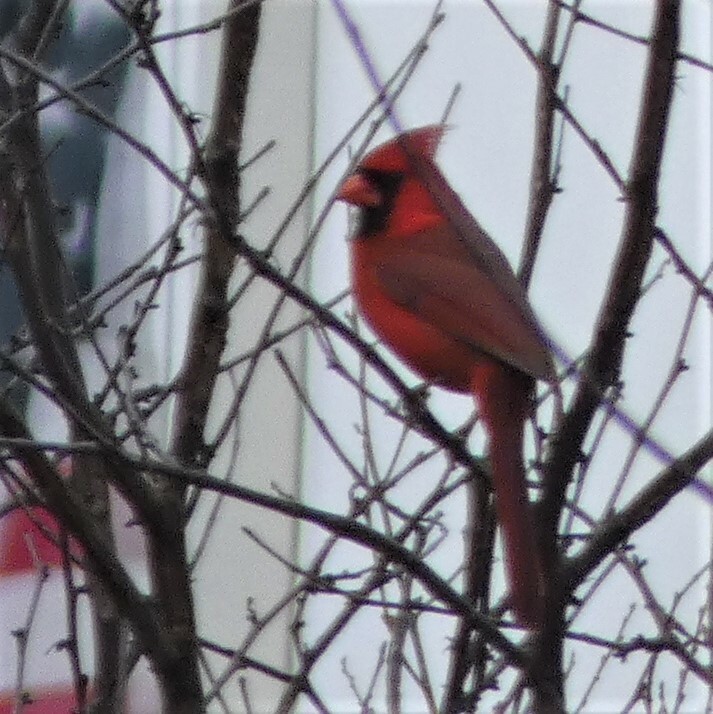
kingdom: Animalia
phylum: Chordata
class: Aves
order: Passeriformes
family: Cardinalidae
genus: Cardinalis
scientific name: Cardinalis cardinalis
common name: Northern cardinal
